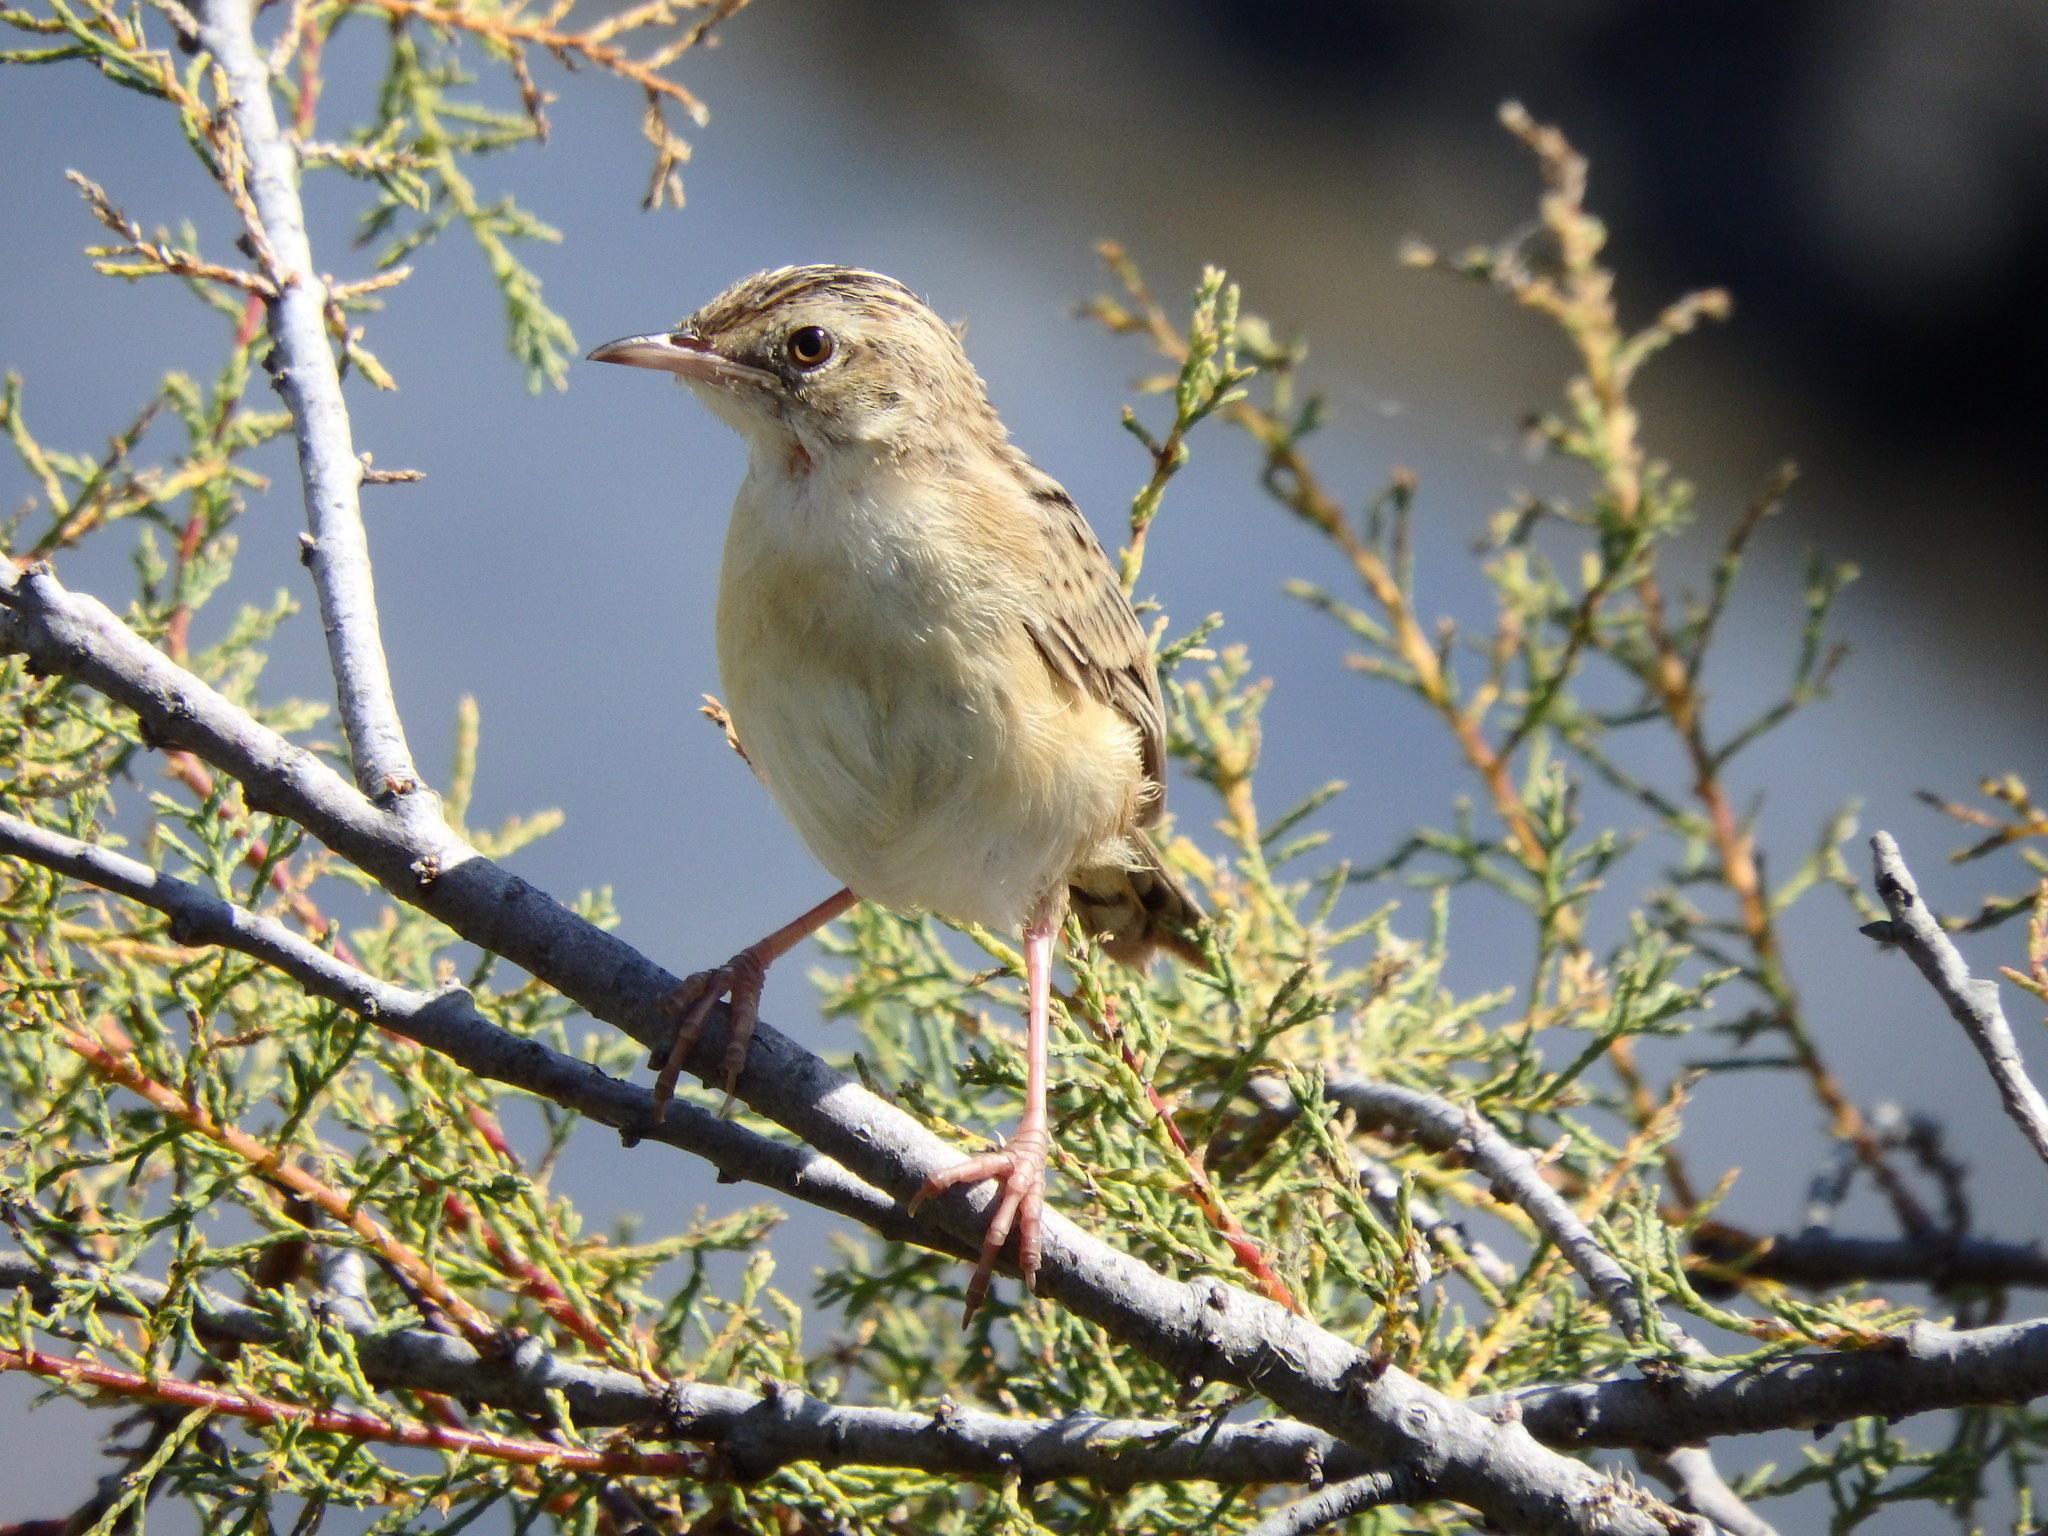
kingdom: Animalia
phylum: Chordata
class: Aves
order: Passeriformes
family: Cisticolidae
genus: Cisticola
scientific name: Cisticola juncidis
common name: Zitting cisticola
